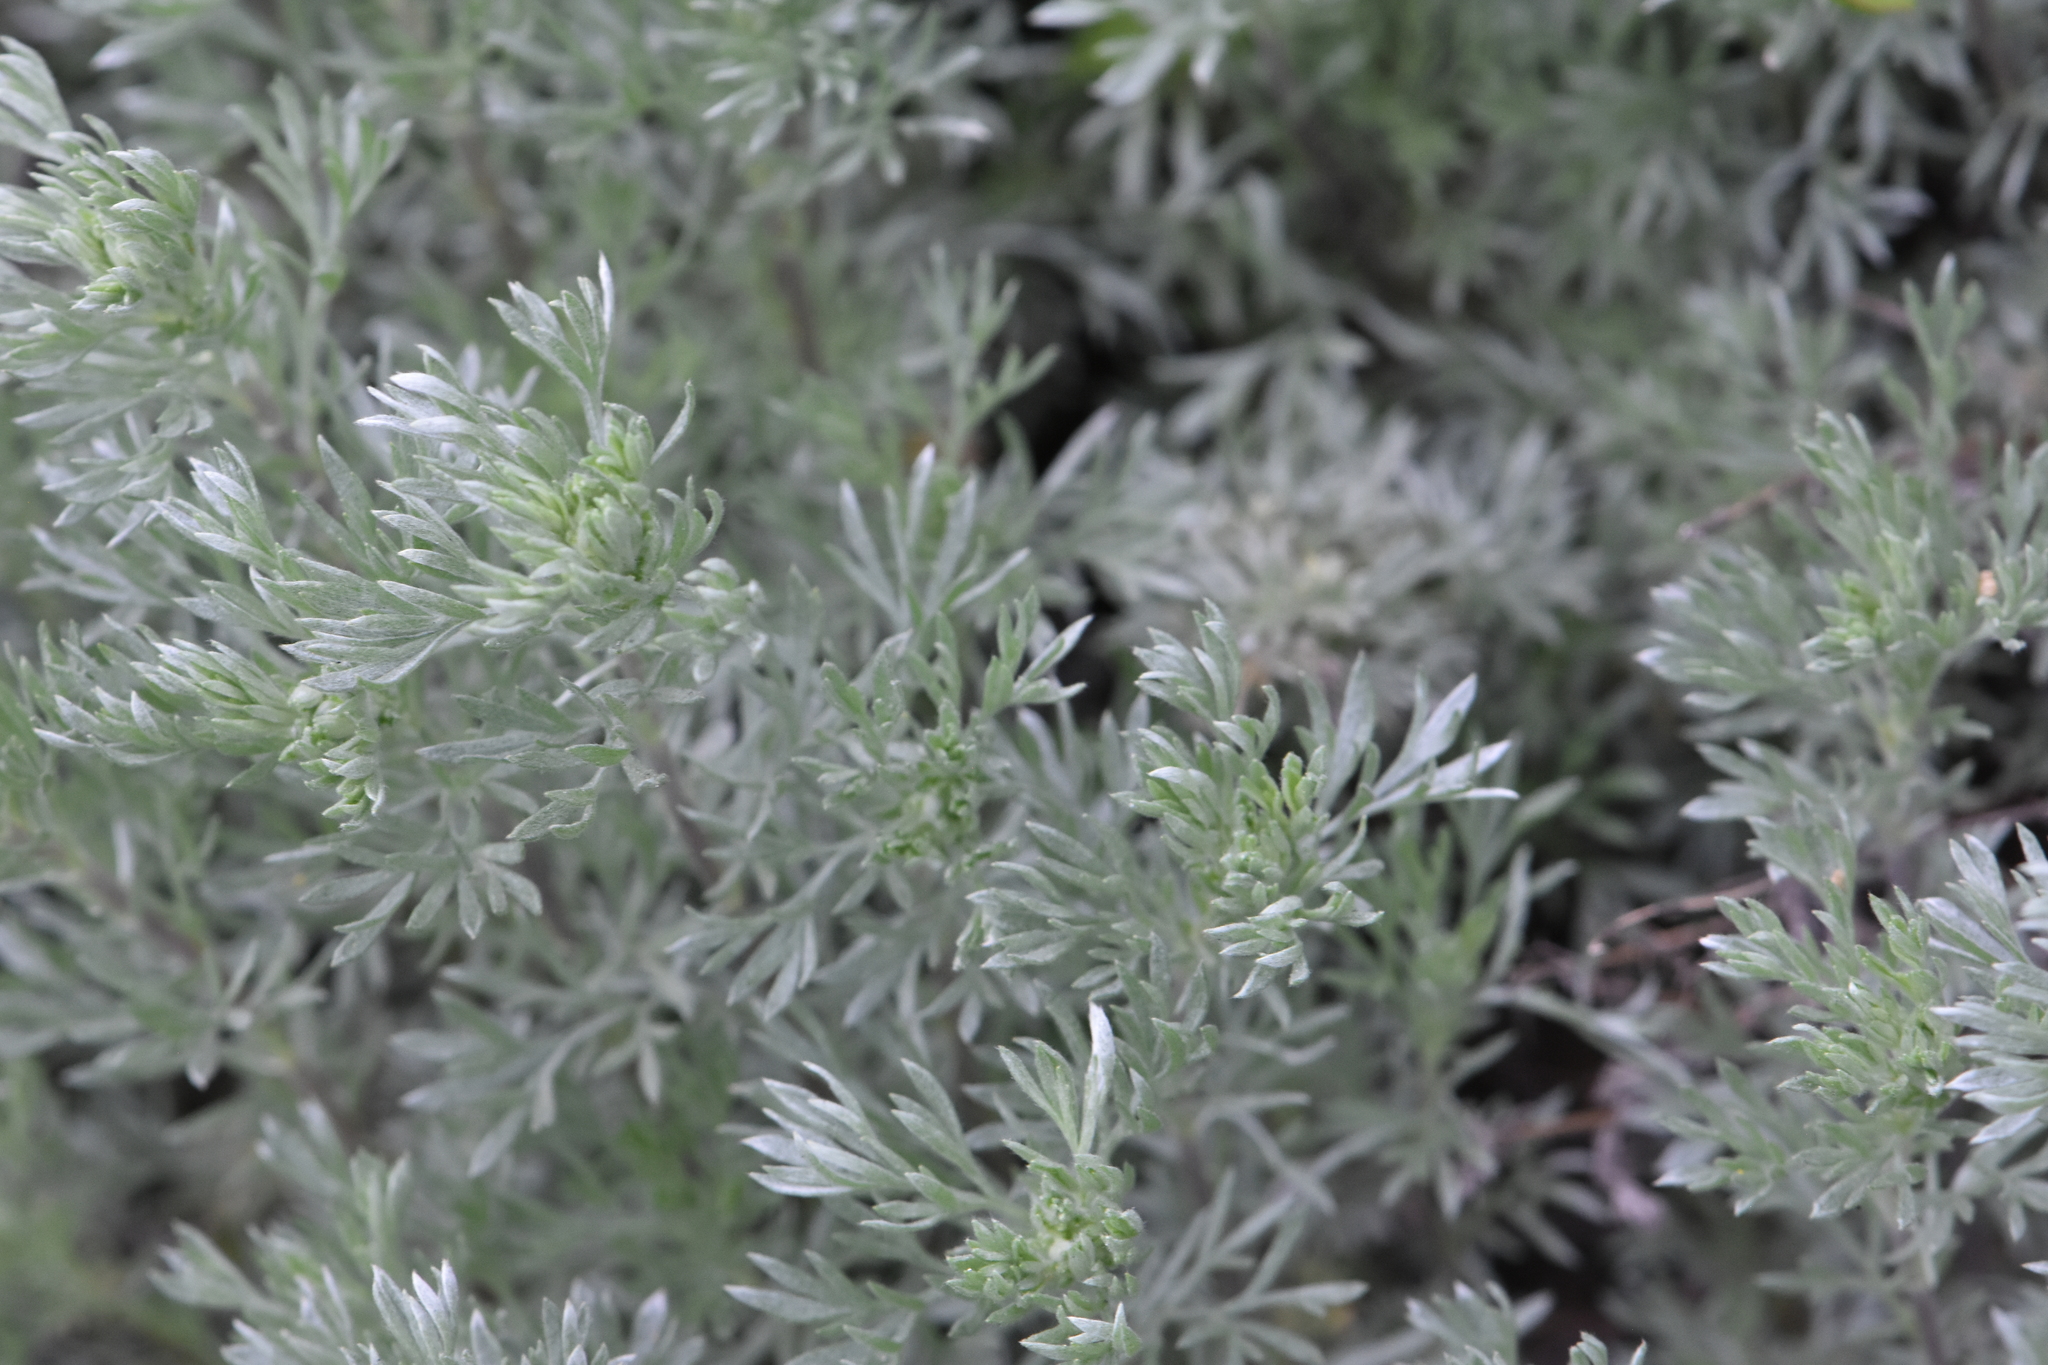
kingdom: Plantae
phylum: Tracheophyta
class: Magnoliopsida
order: Asterales
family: Asteraceae
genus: Artemisia
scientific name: Artemisia austriaca
